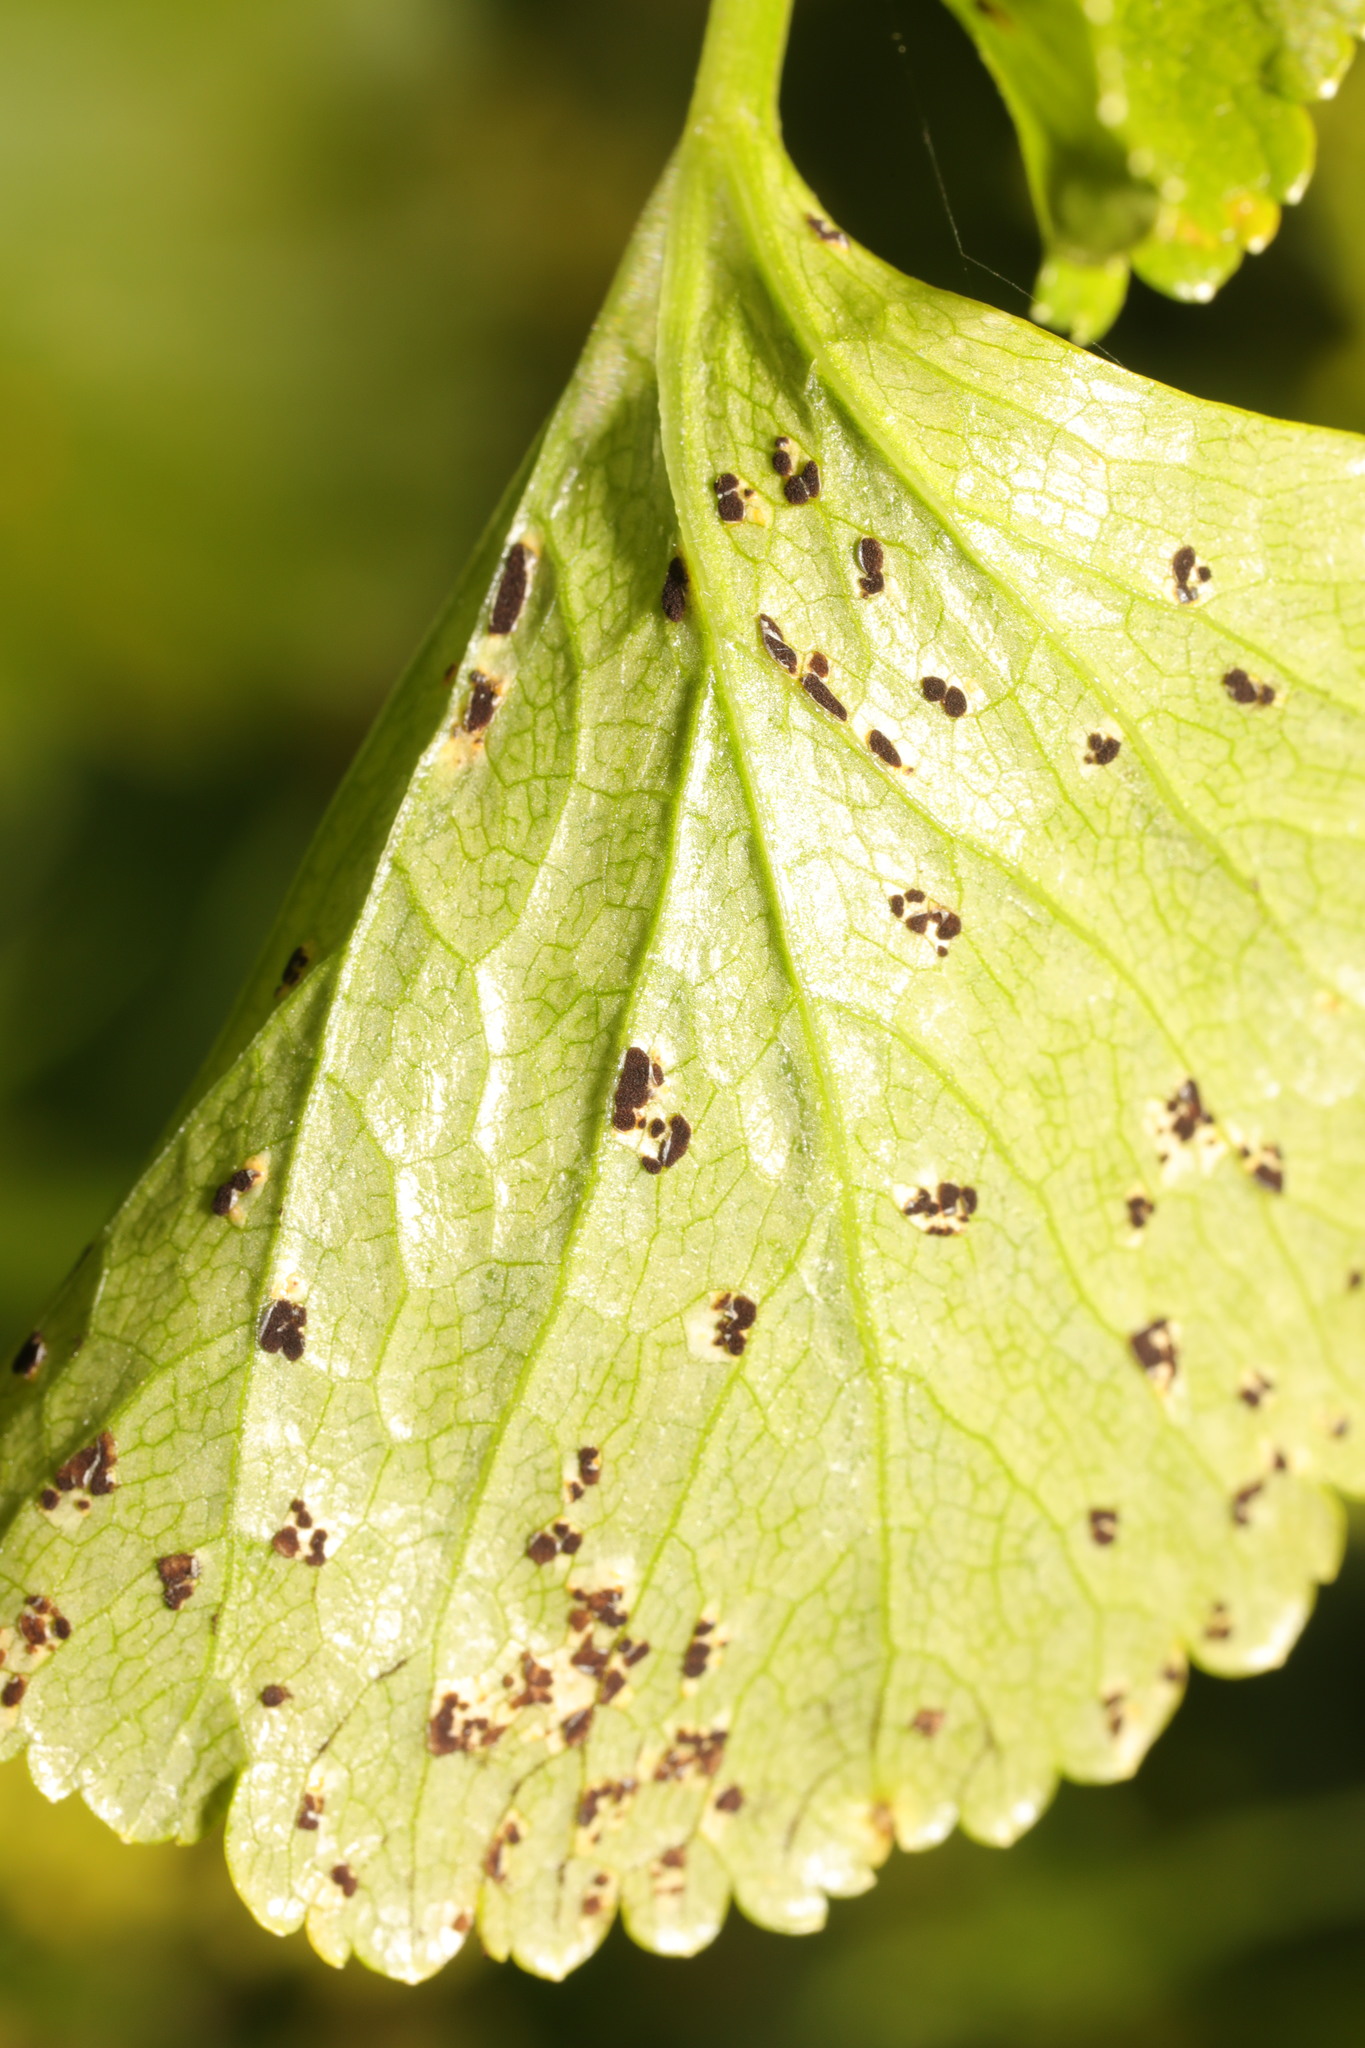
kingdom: Fungi
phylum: Basidiomycota
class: Pucciniomycetes
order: Pucciniales
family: Pucciniaceae
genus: Puccinia
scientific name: Puccinia smyrnii
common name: Alexanders rust
